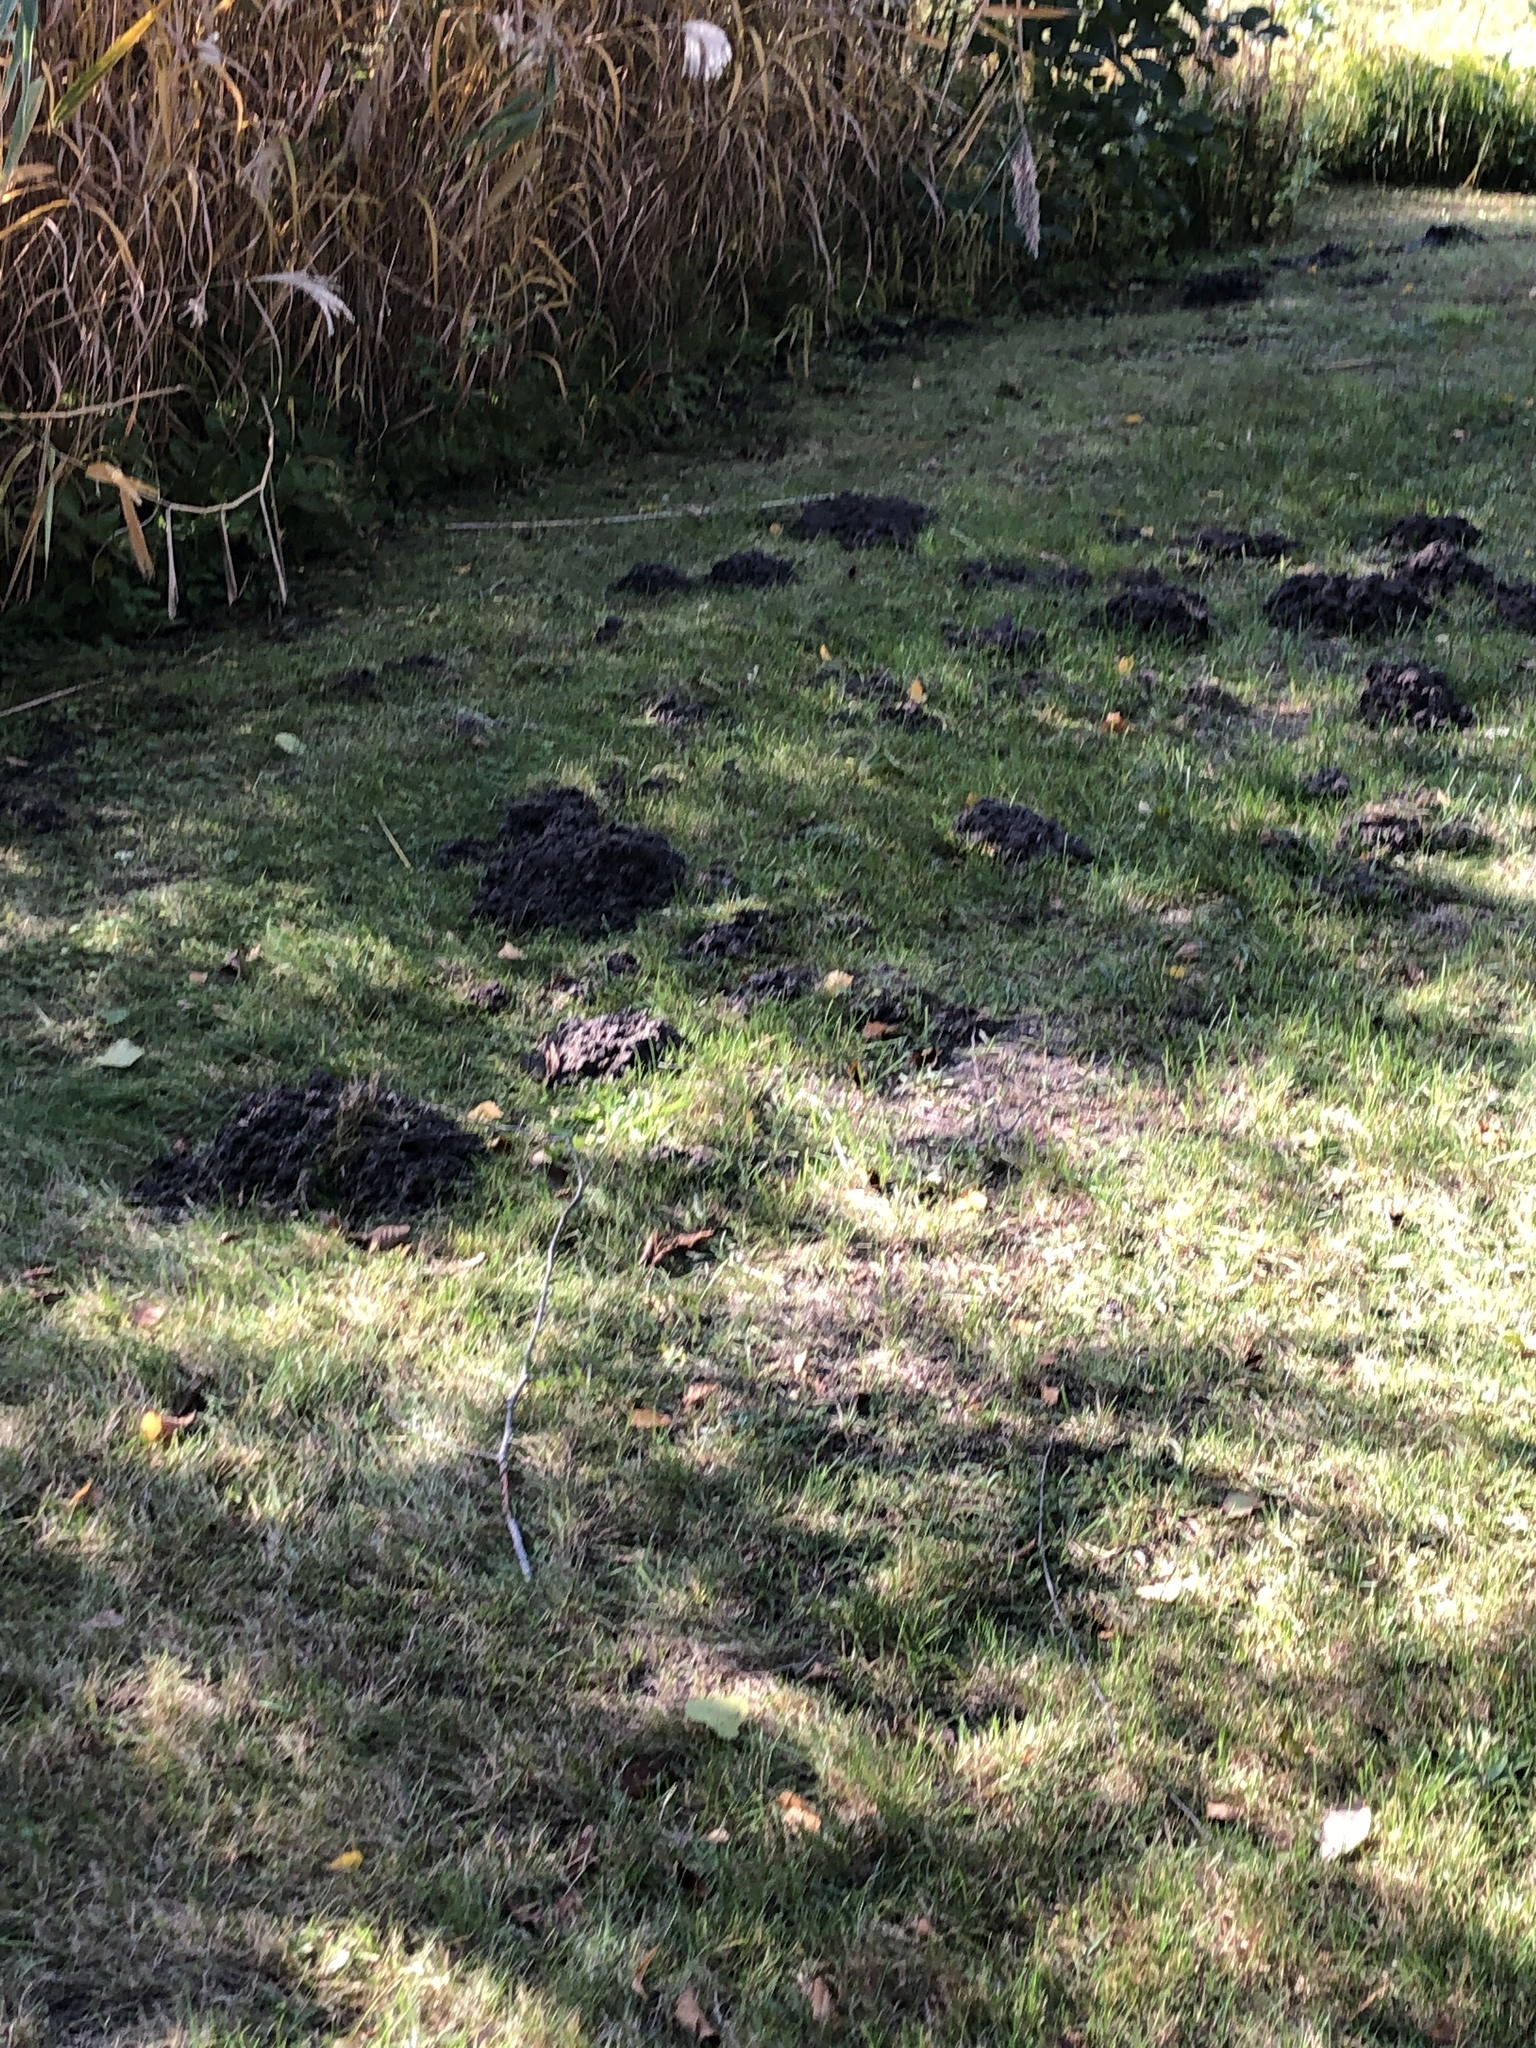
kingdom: Animalia
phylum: Chordata
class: Mammalia
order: Soricomorpha
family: Talpidae
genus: Talpa
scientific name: Talpa europaea
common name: European mole
